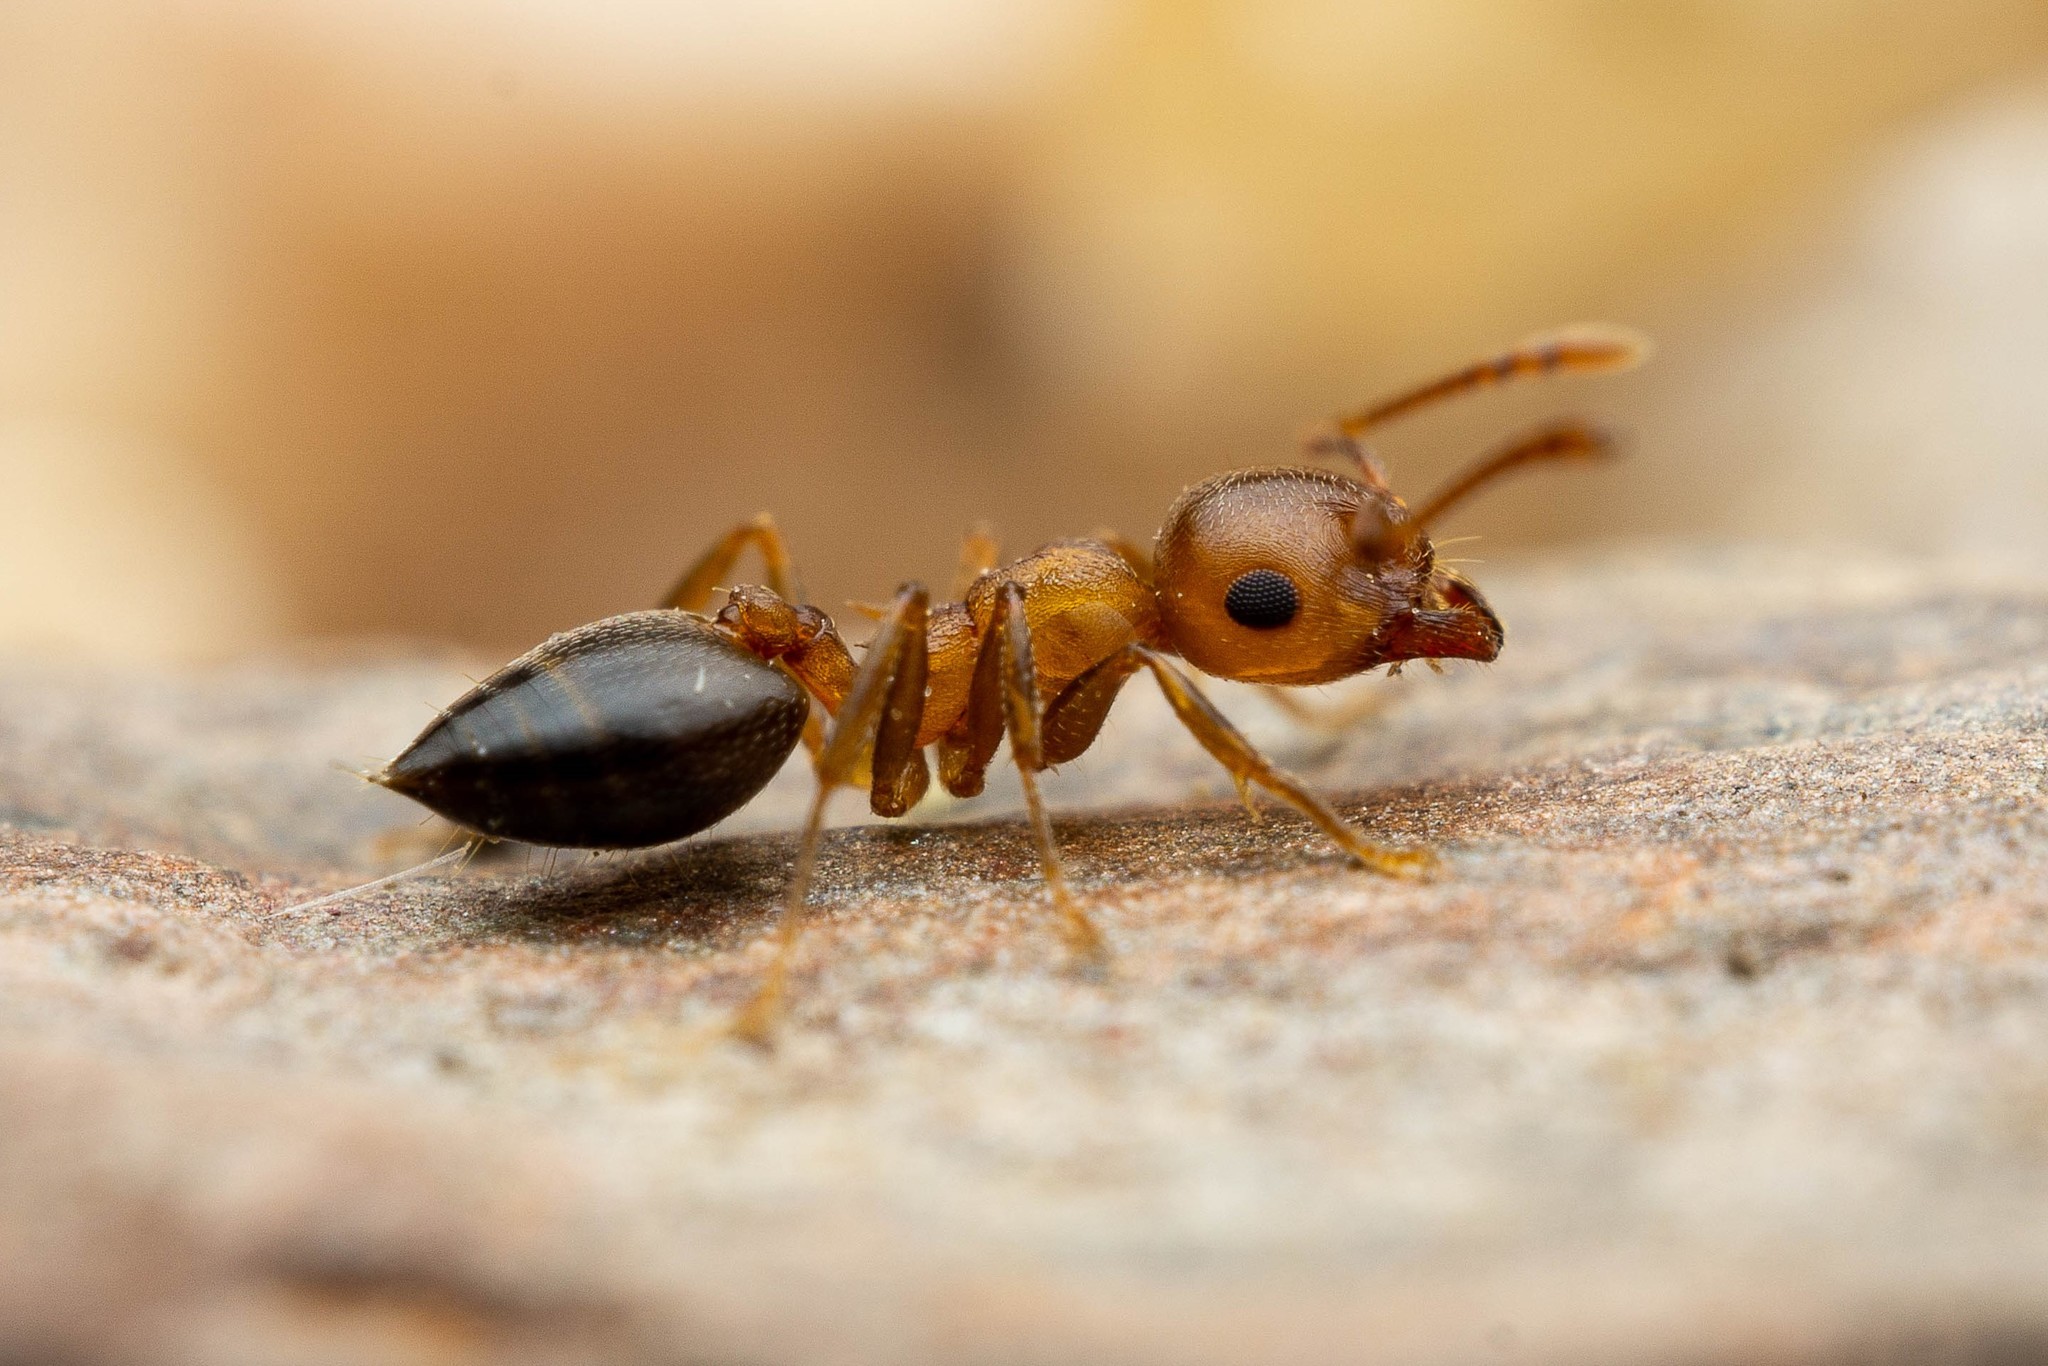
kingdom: Animalia
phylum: Arthropoda
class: Insecta
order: Hymenoptera
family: Formicidae
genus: Crematogaster
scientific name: Crematogaster depilis
